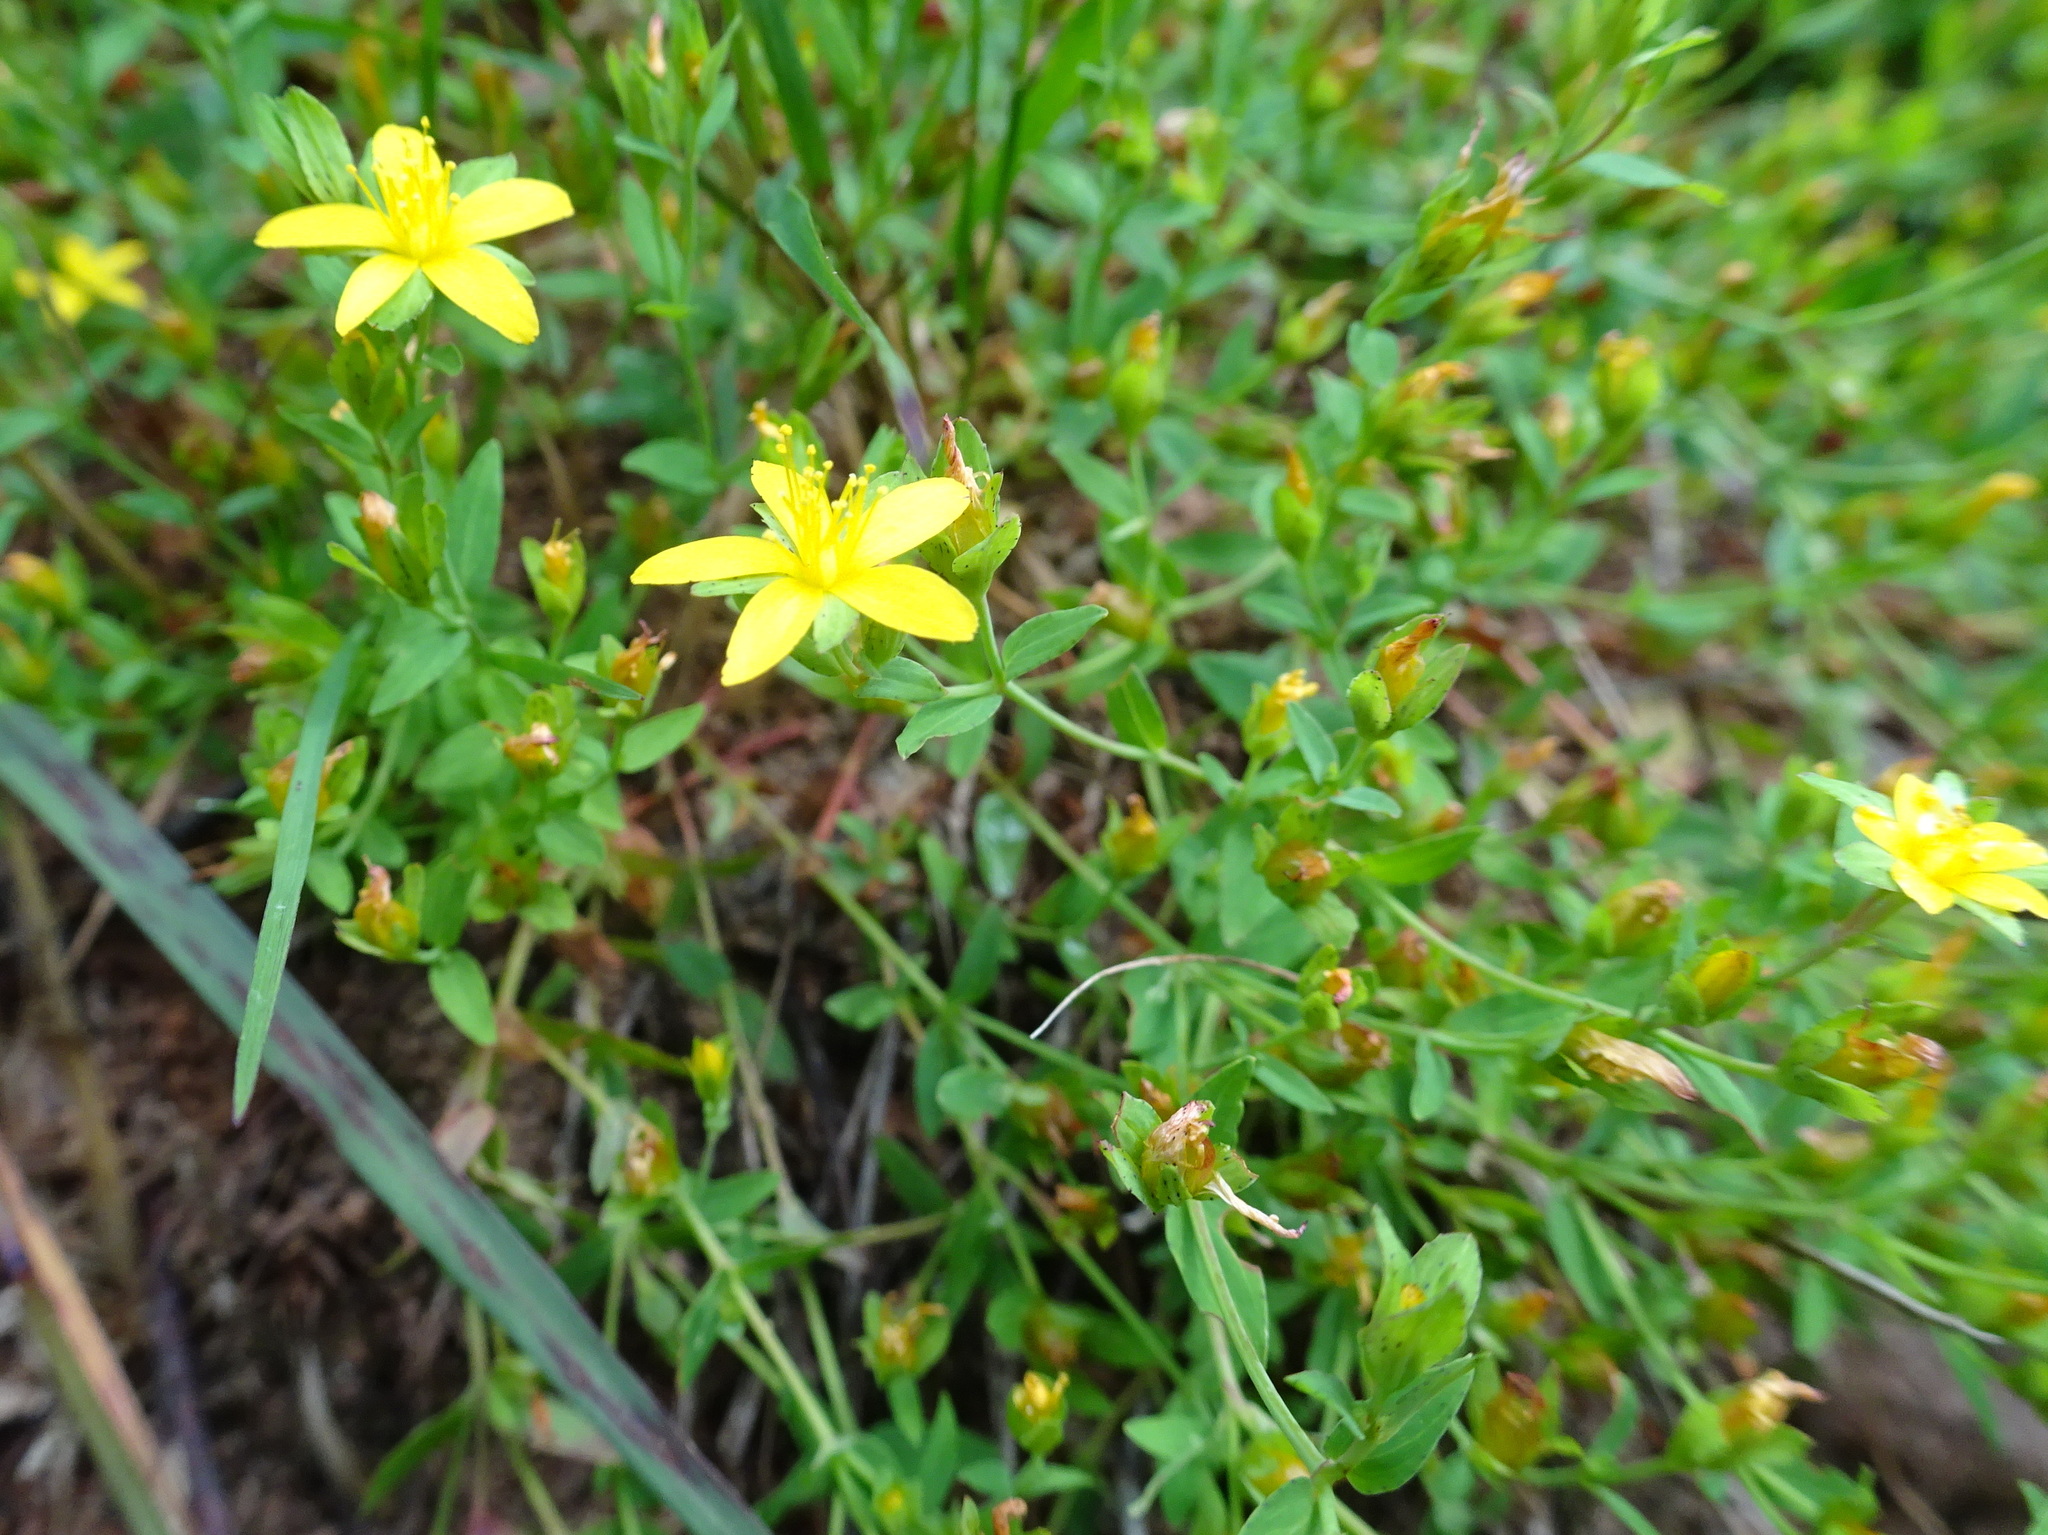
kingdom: Plantae
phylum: Tracheophyta
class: Magnoliopsida
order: Malpighiales
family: Hypericaceae
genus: Hypericum
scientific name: Hypericum humifusum
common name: Trailing st. john's-wort
